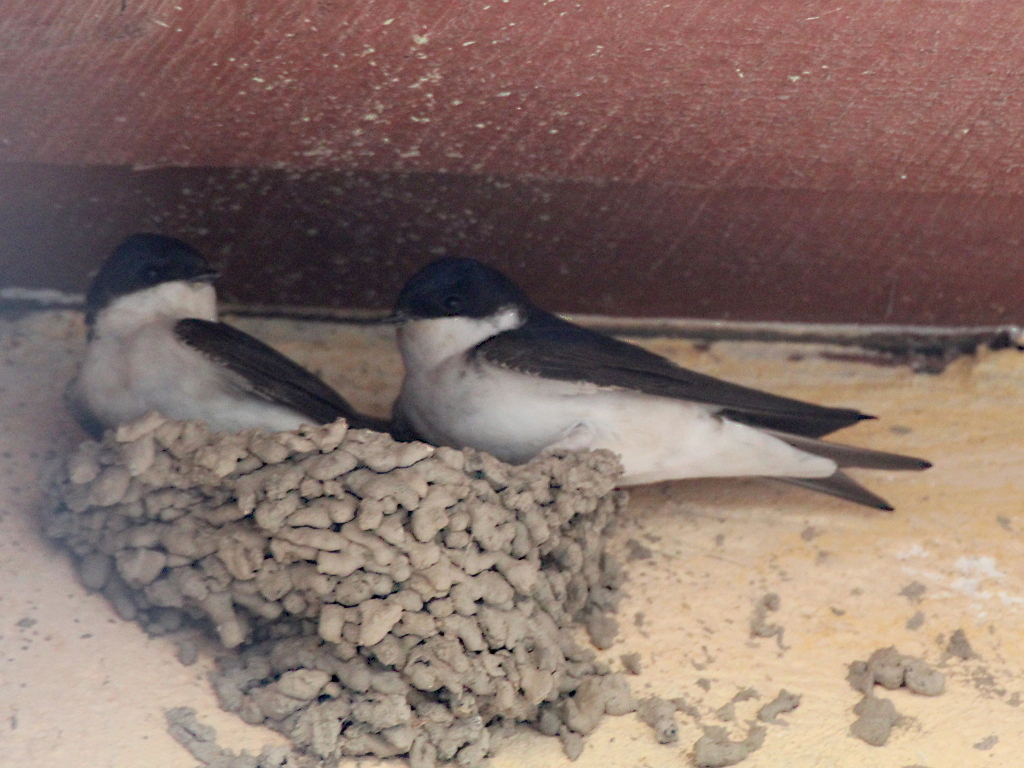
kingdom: Animalia
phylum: Chordata
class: Aves
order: Passeriformes
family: Hirundinidae
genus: Delichon
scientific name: Delichon urbicum
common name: Common house martin
